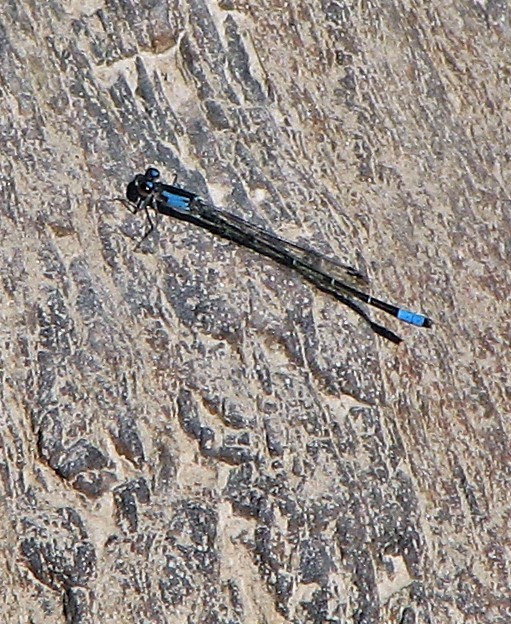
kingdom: Animalia
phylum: Arthropoda
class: Insecta
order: Odonata
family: Coenagrionidae
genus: Oxyagrion
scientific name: Oxyagrion ablutum
